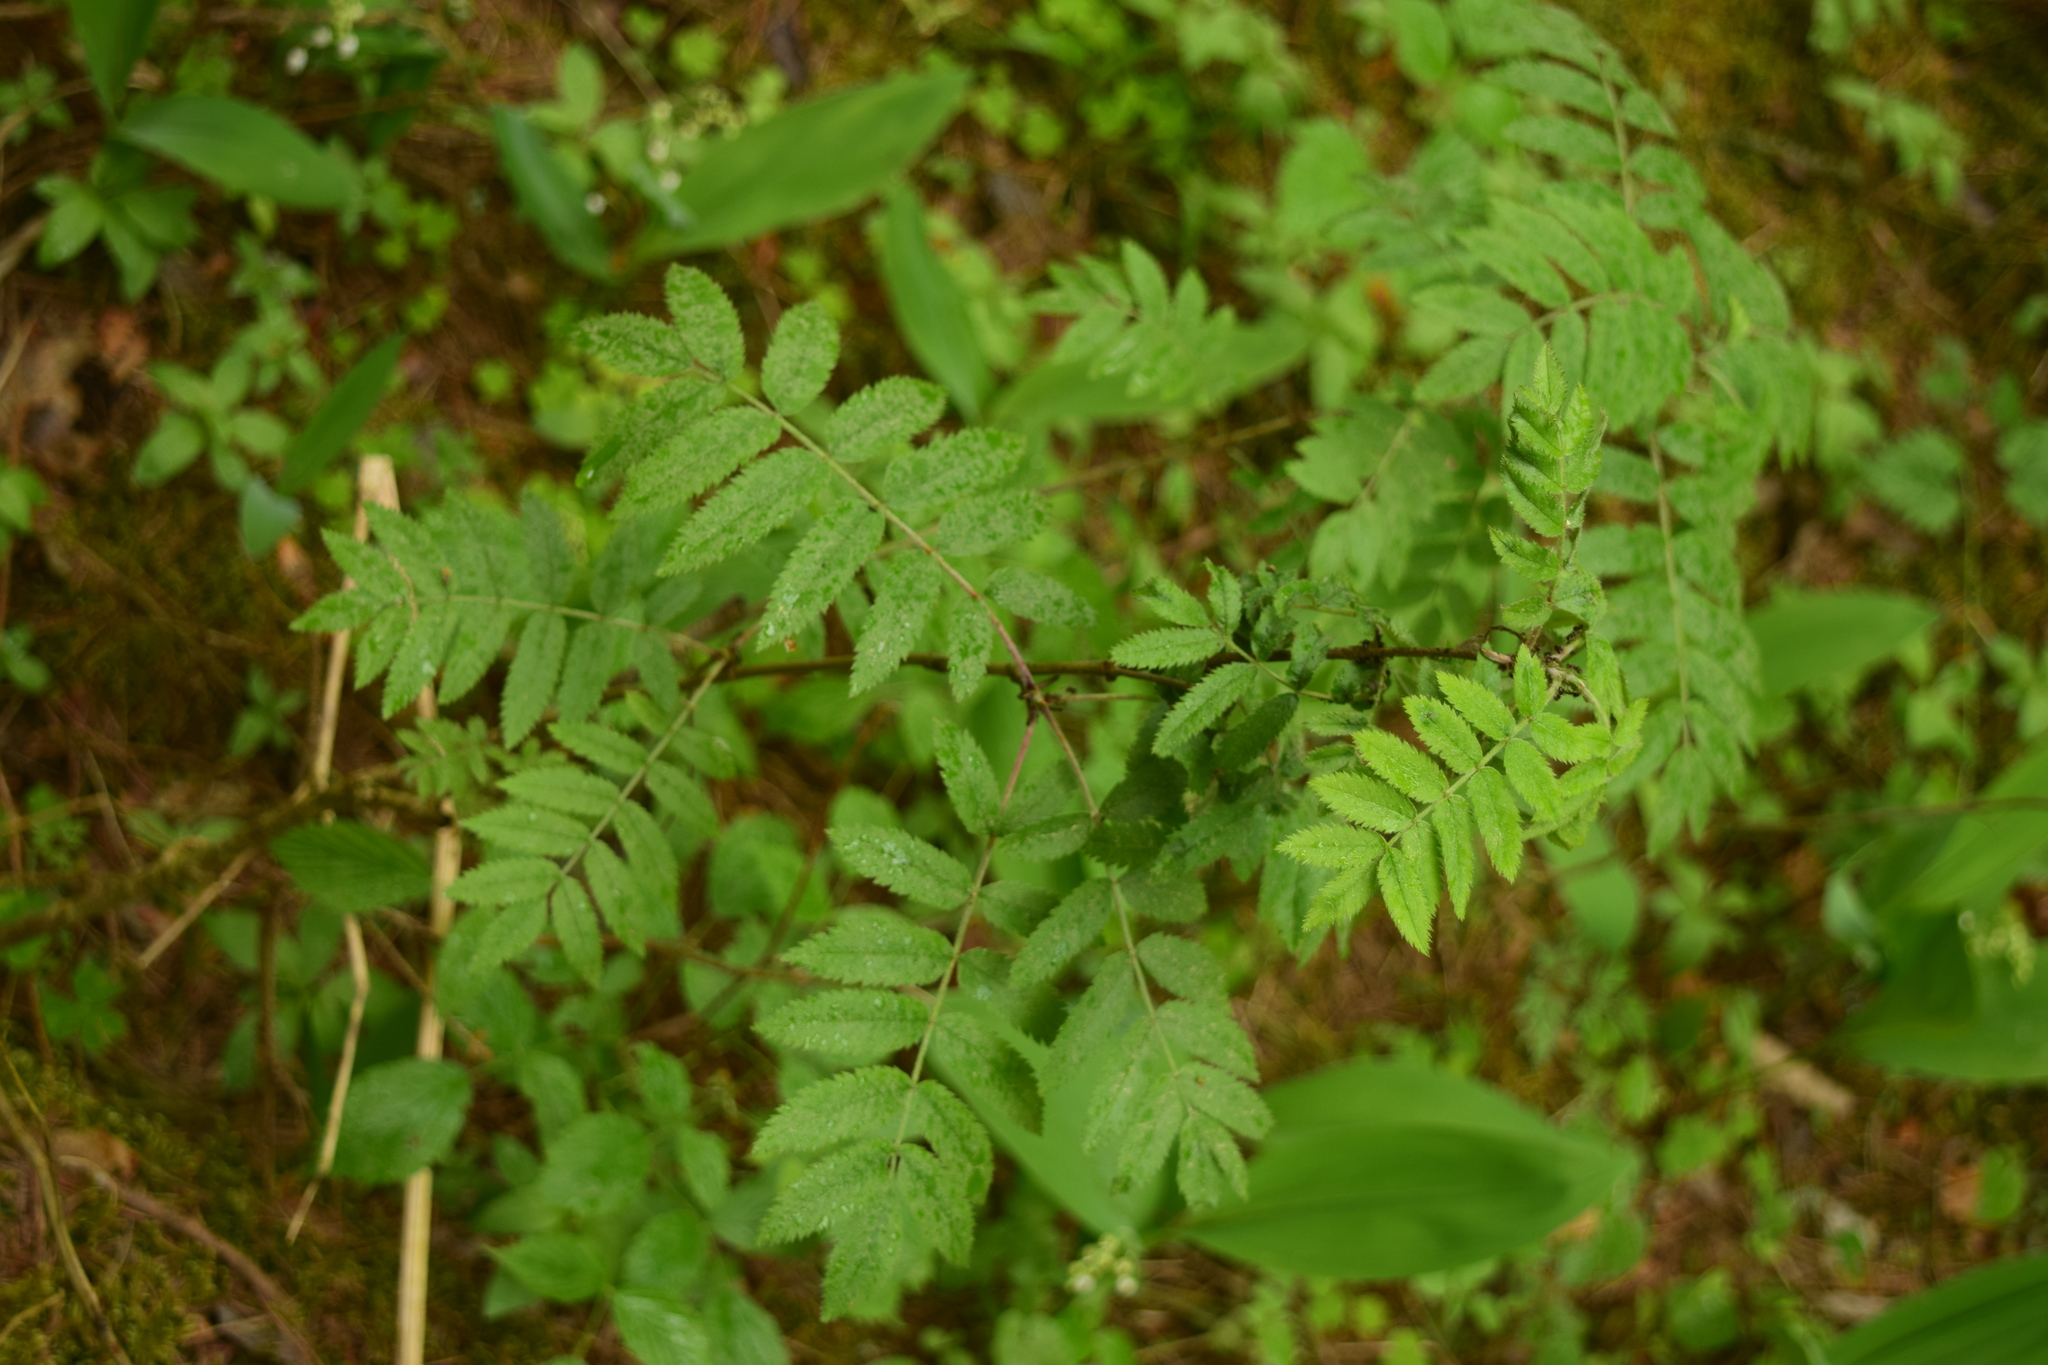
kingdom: Plantae
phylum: Tracheophyta
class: Magnoliopsida
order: Rosales
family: Rosaceae
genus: Sorbus
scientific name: Sorbus aucuparia
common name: Rowan
